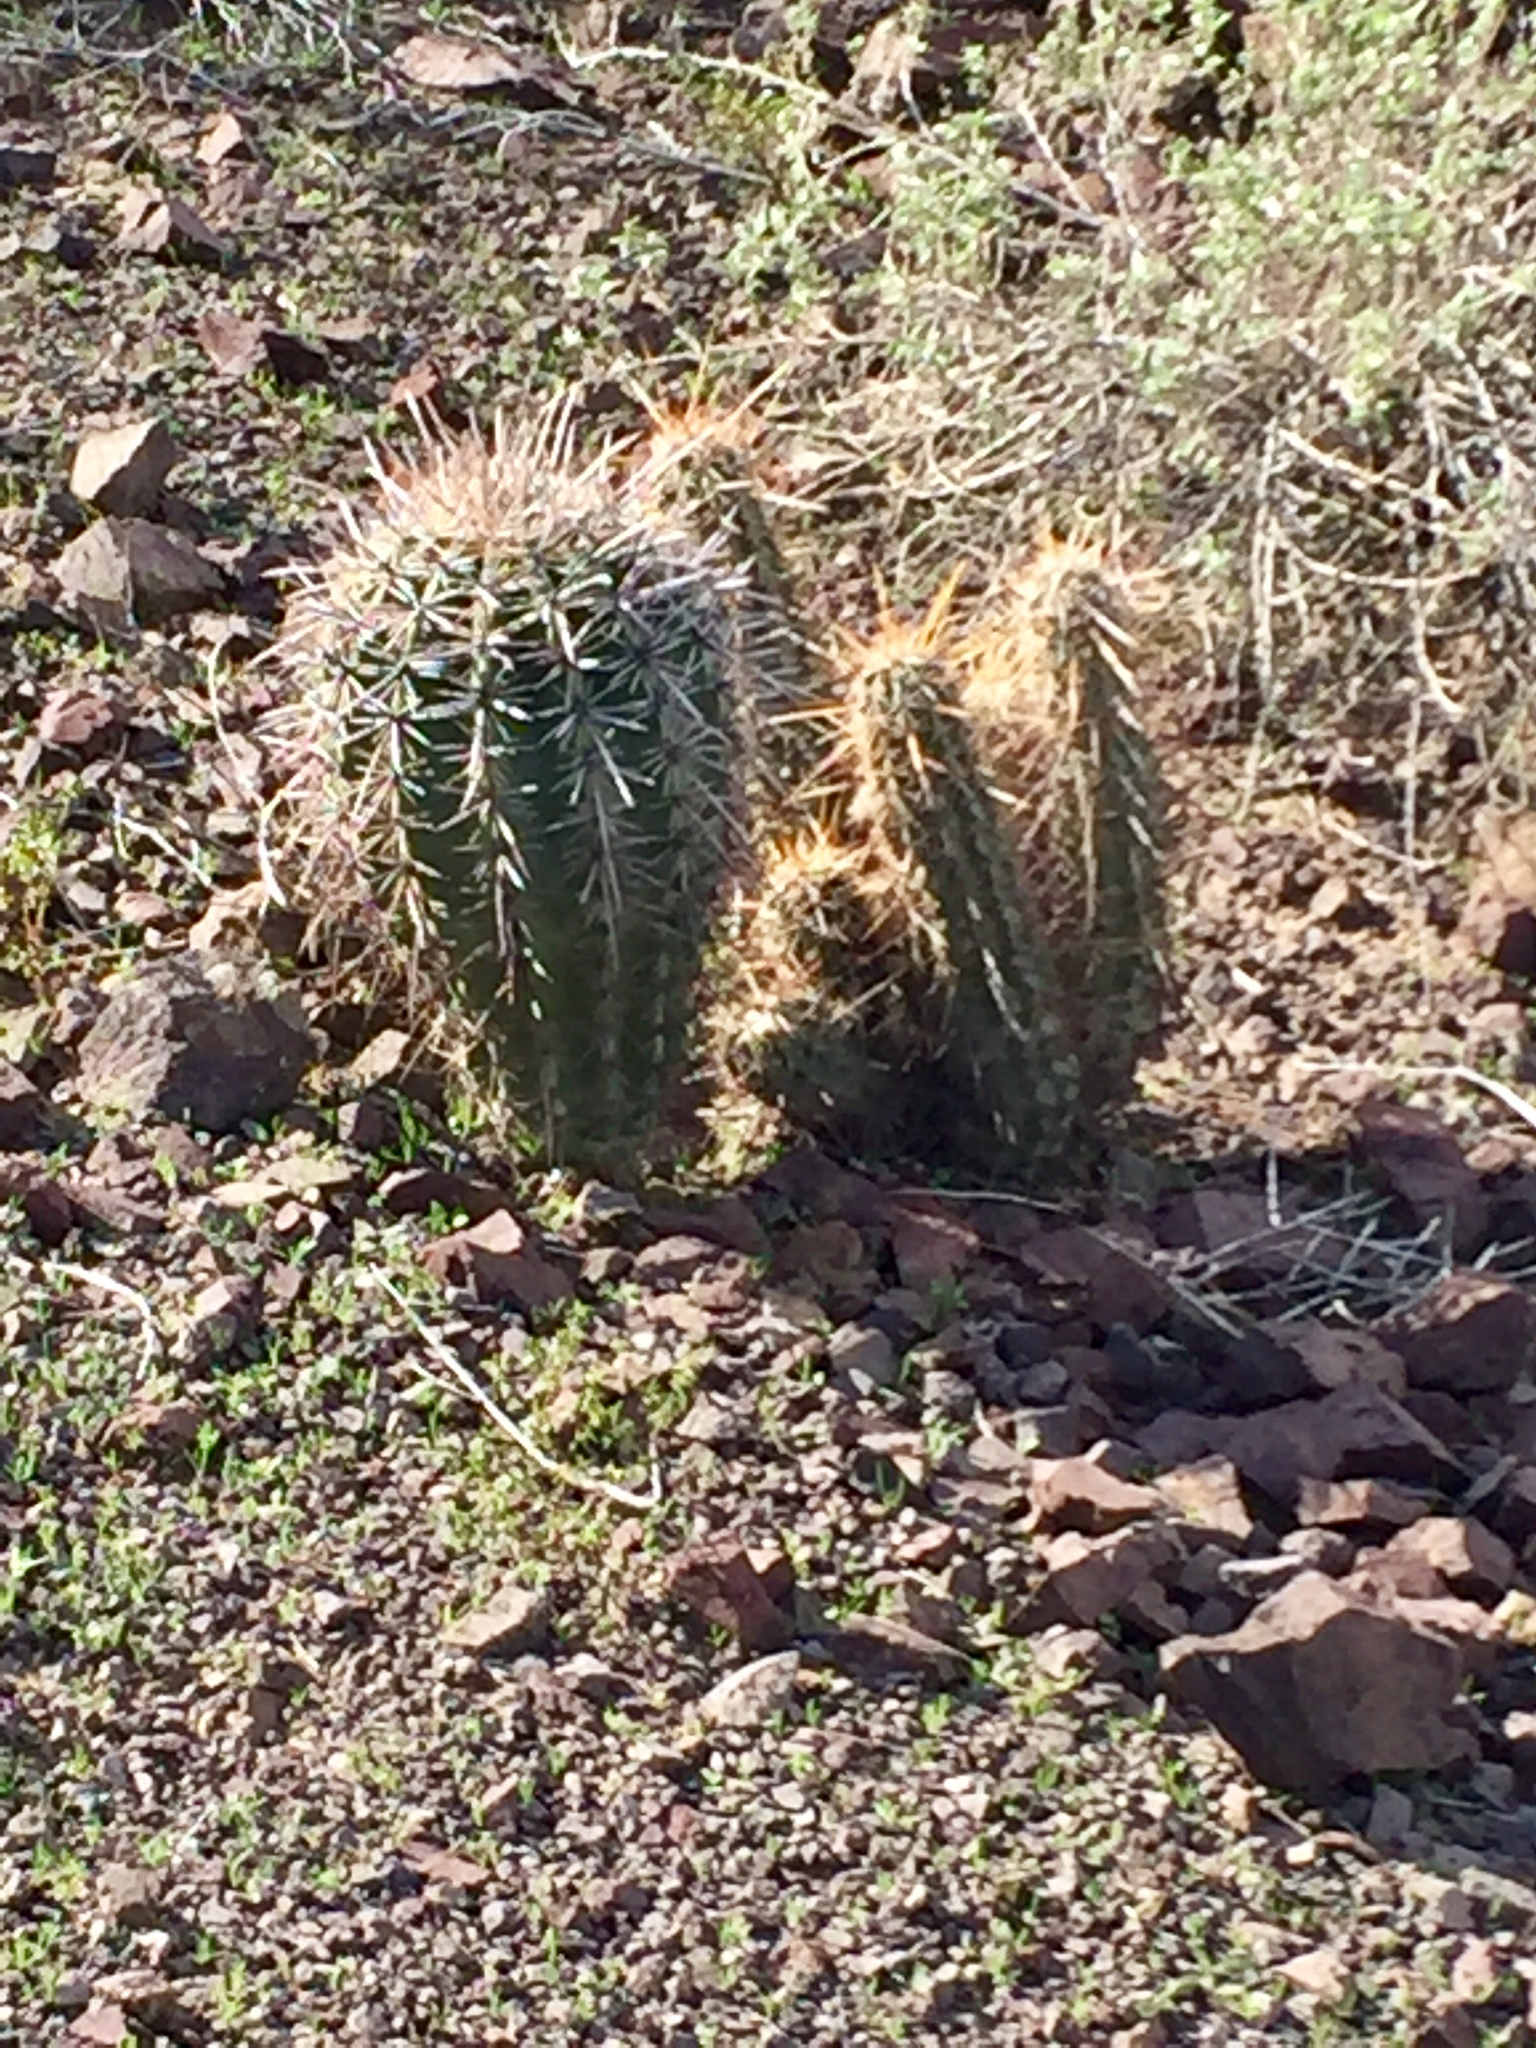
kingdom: Plantae
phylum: Tracheophyta
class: Magnoliopsida
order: Caryophyllales
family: Cactaceae
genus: Carnegiea
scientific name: Carnegiea gigantea
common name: Saguaro
